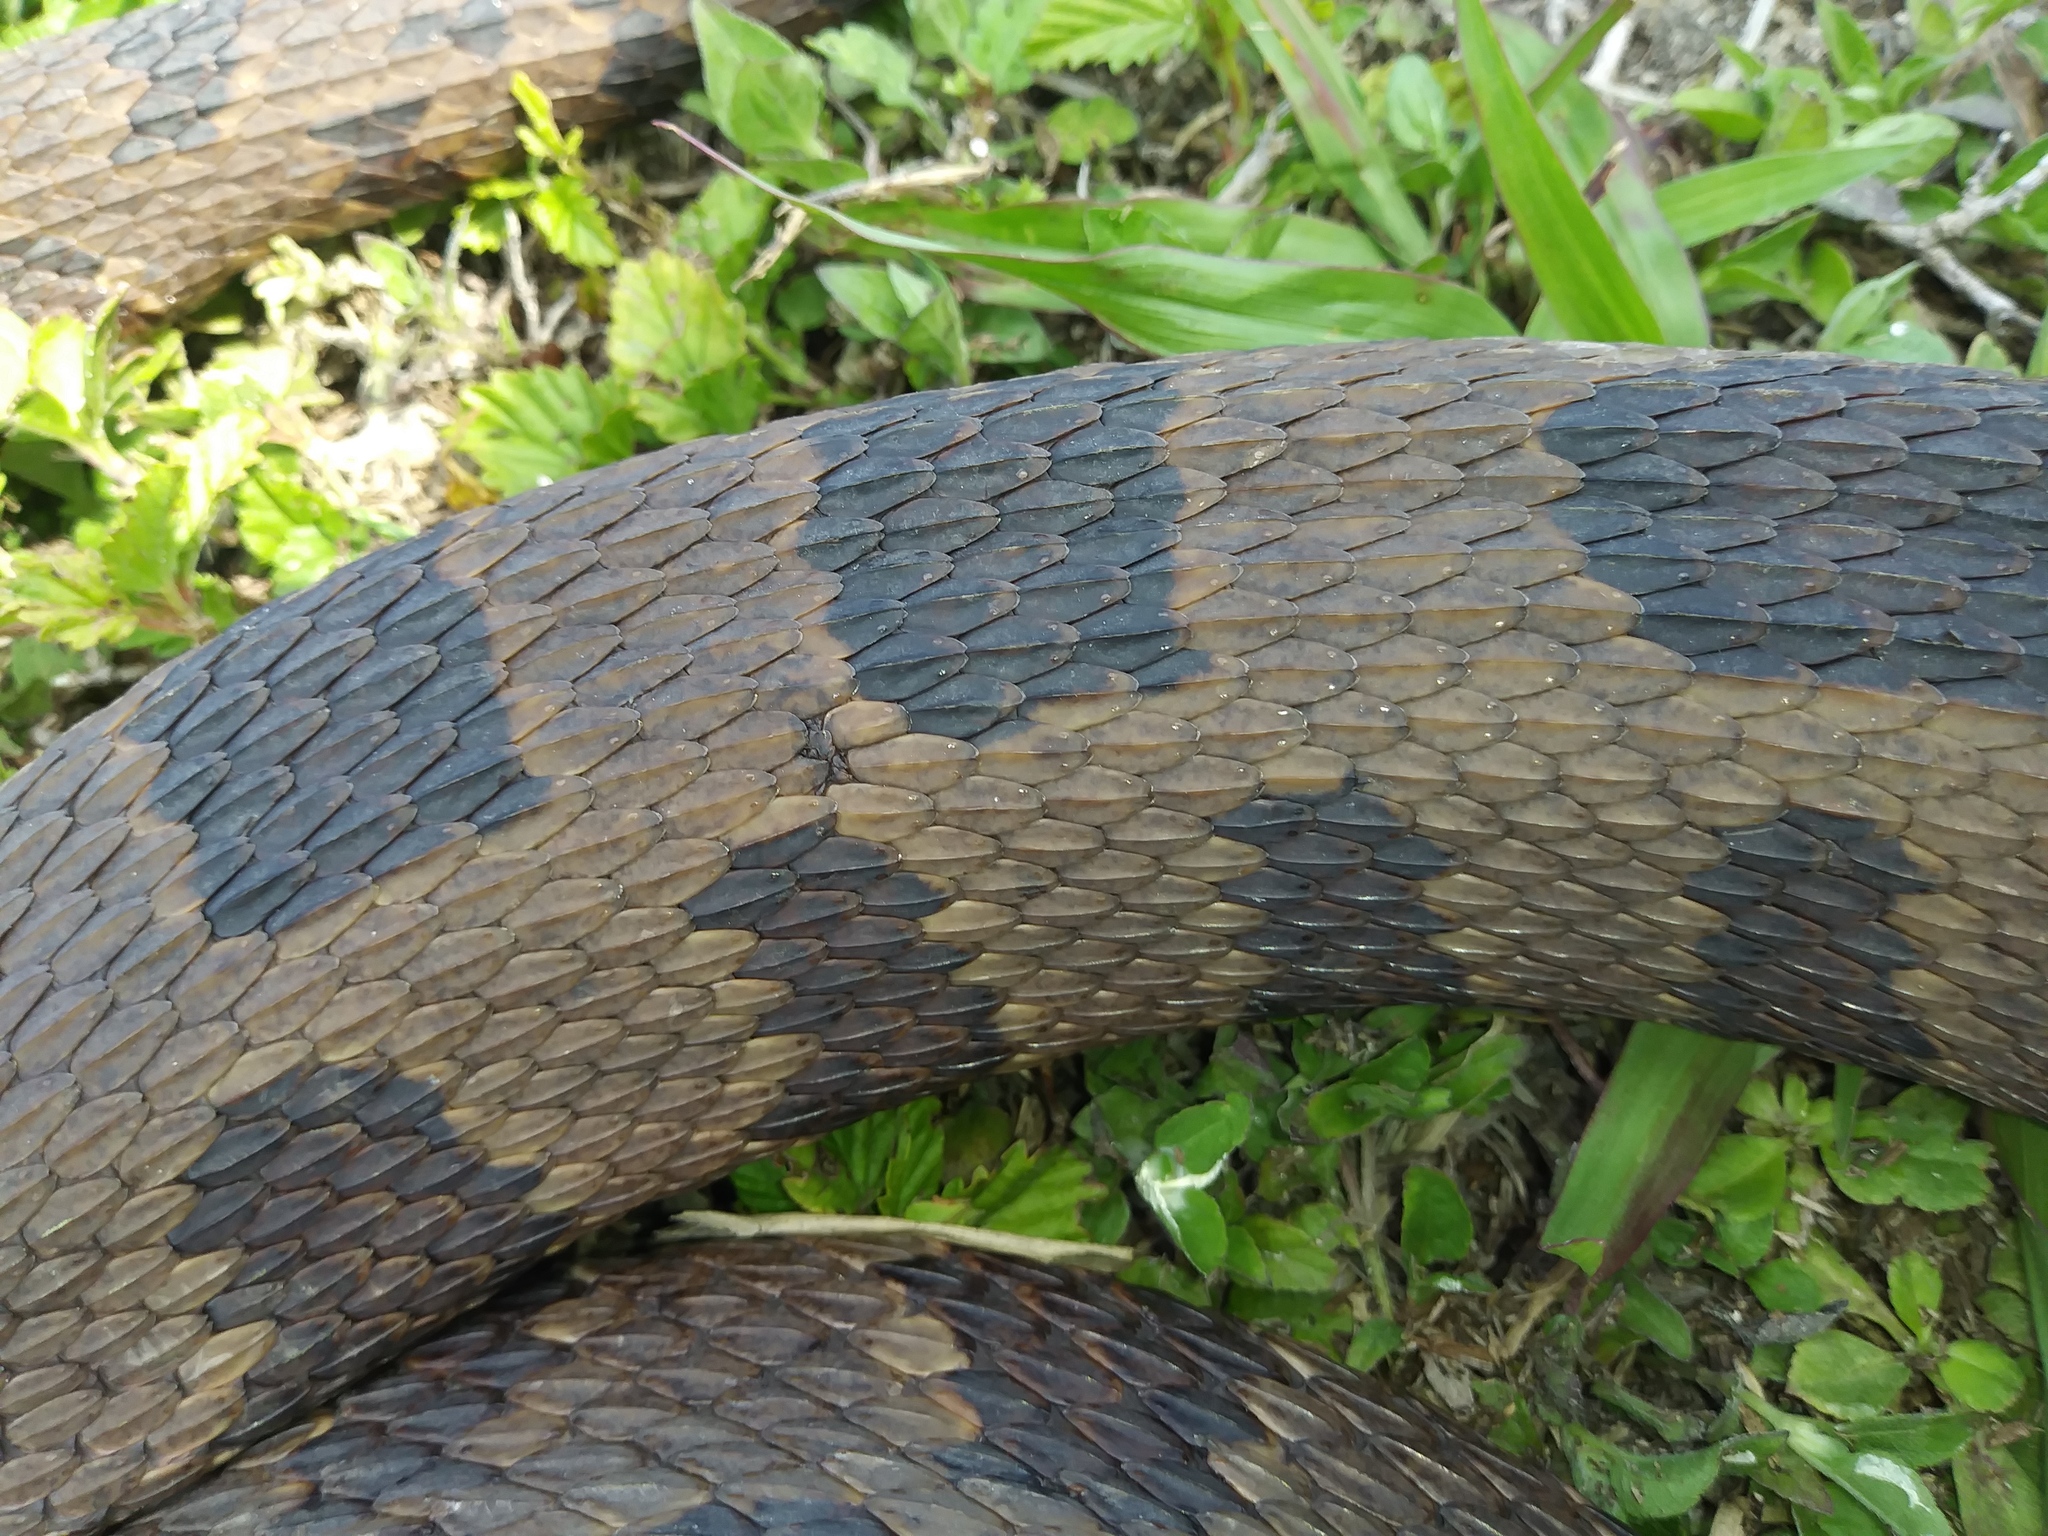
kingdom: Animalia
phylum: Chordata
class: Squamata
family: Colubridae
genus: Nerodia
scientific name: Nerodia taxispilota
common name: Brown water snake
